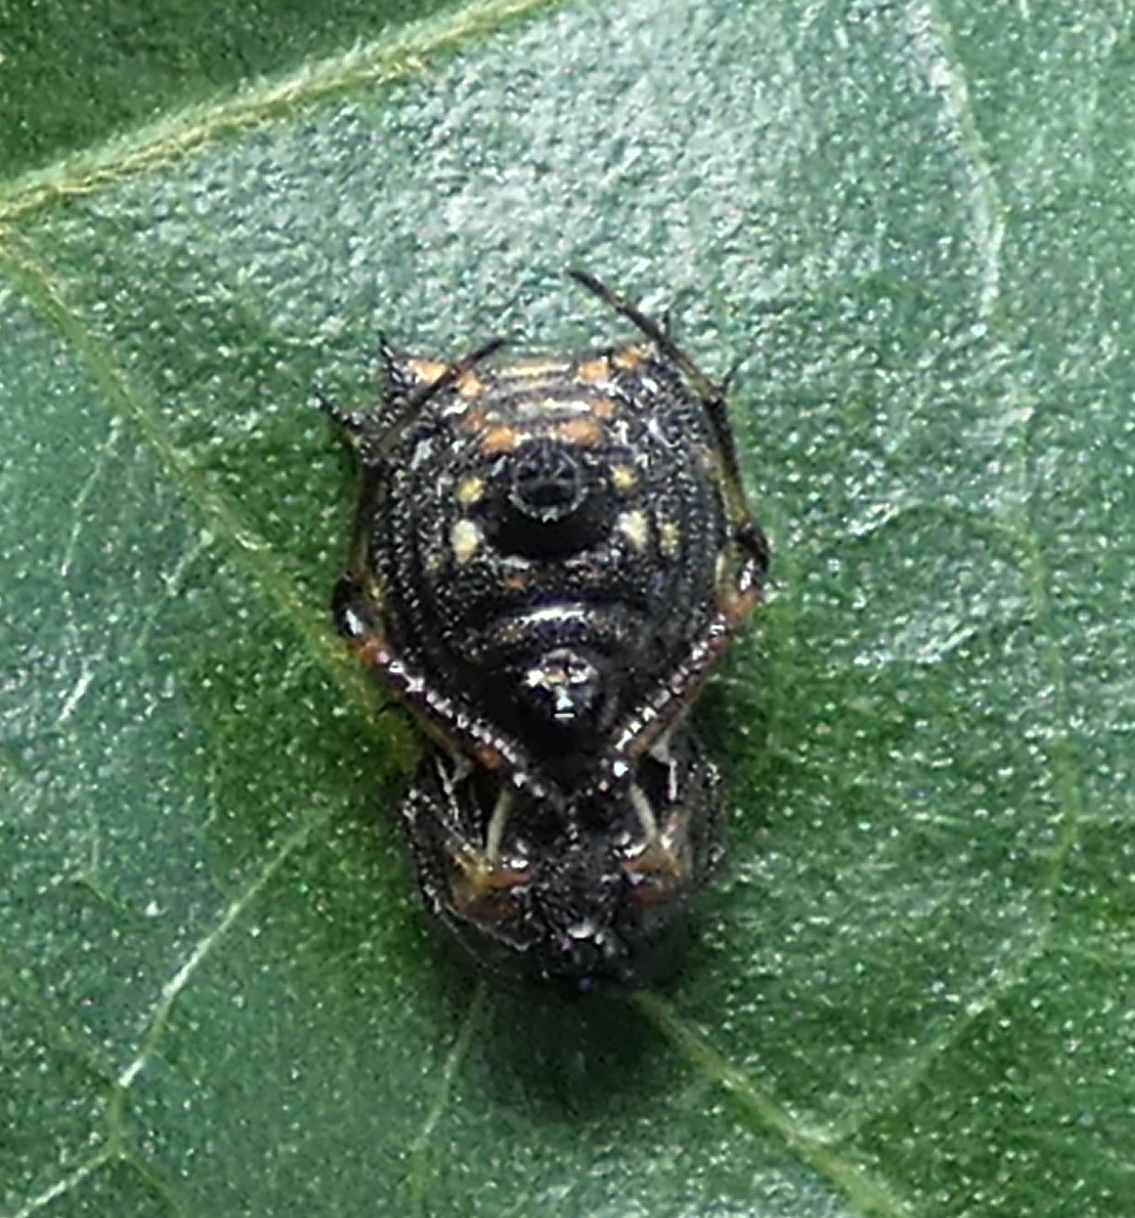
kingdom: Animalia
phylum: Arthropoda
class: Arachnida
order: Araneae
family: Araneidae
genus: Micrathena
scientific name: Micrathena picta
